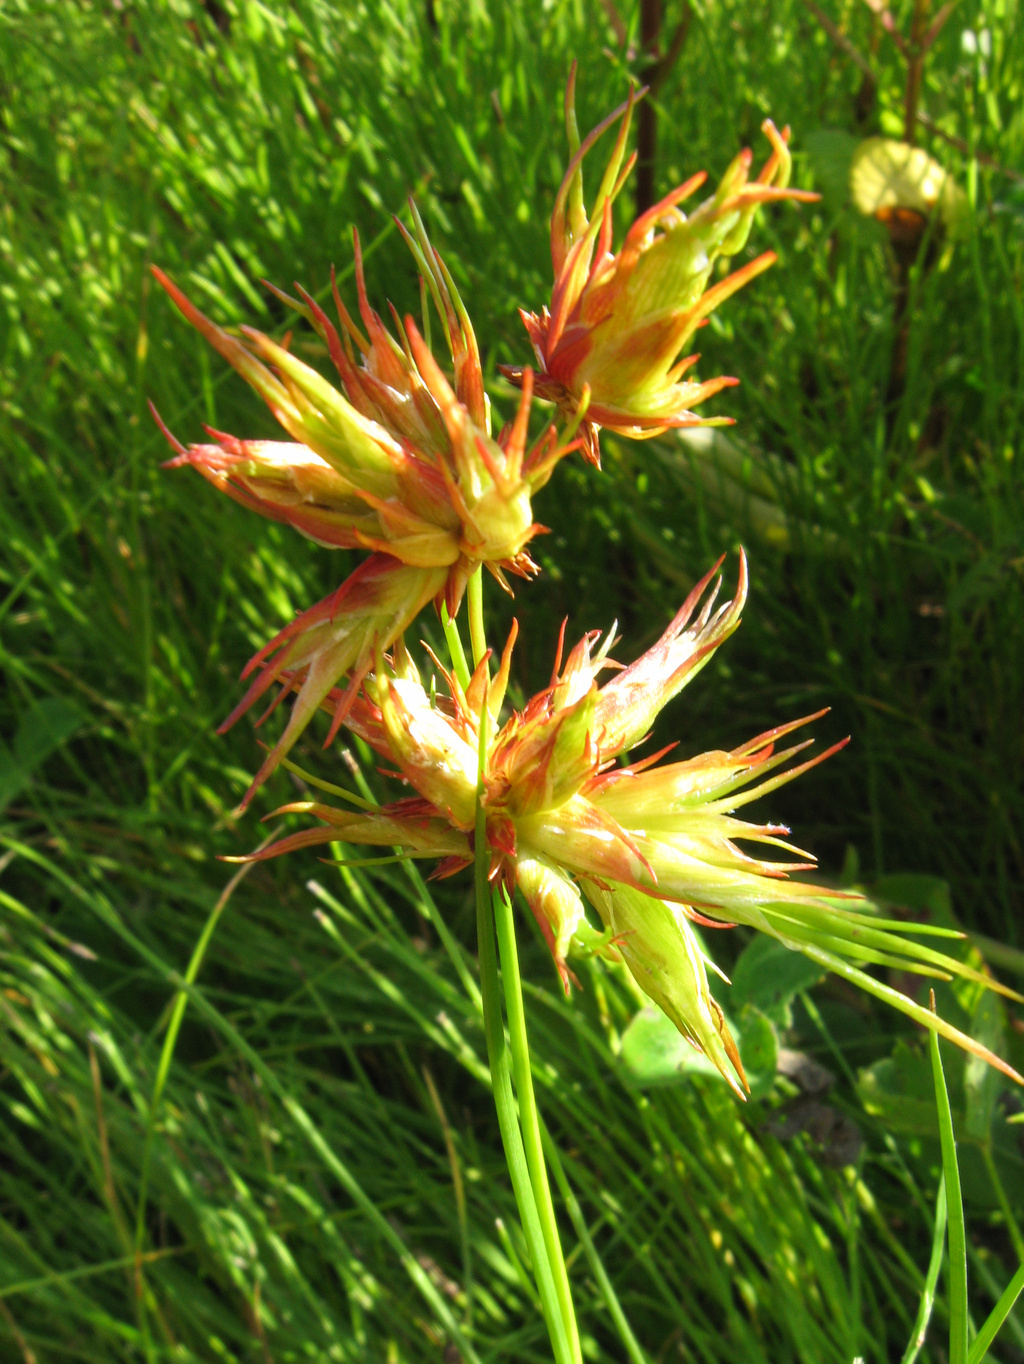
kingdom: Animalia
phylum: Arthropoda
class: Insecta
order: Hemiptera
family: Liviidae
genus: Livia
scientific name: Livia junci
